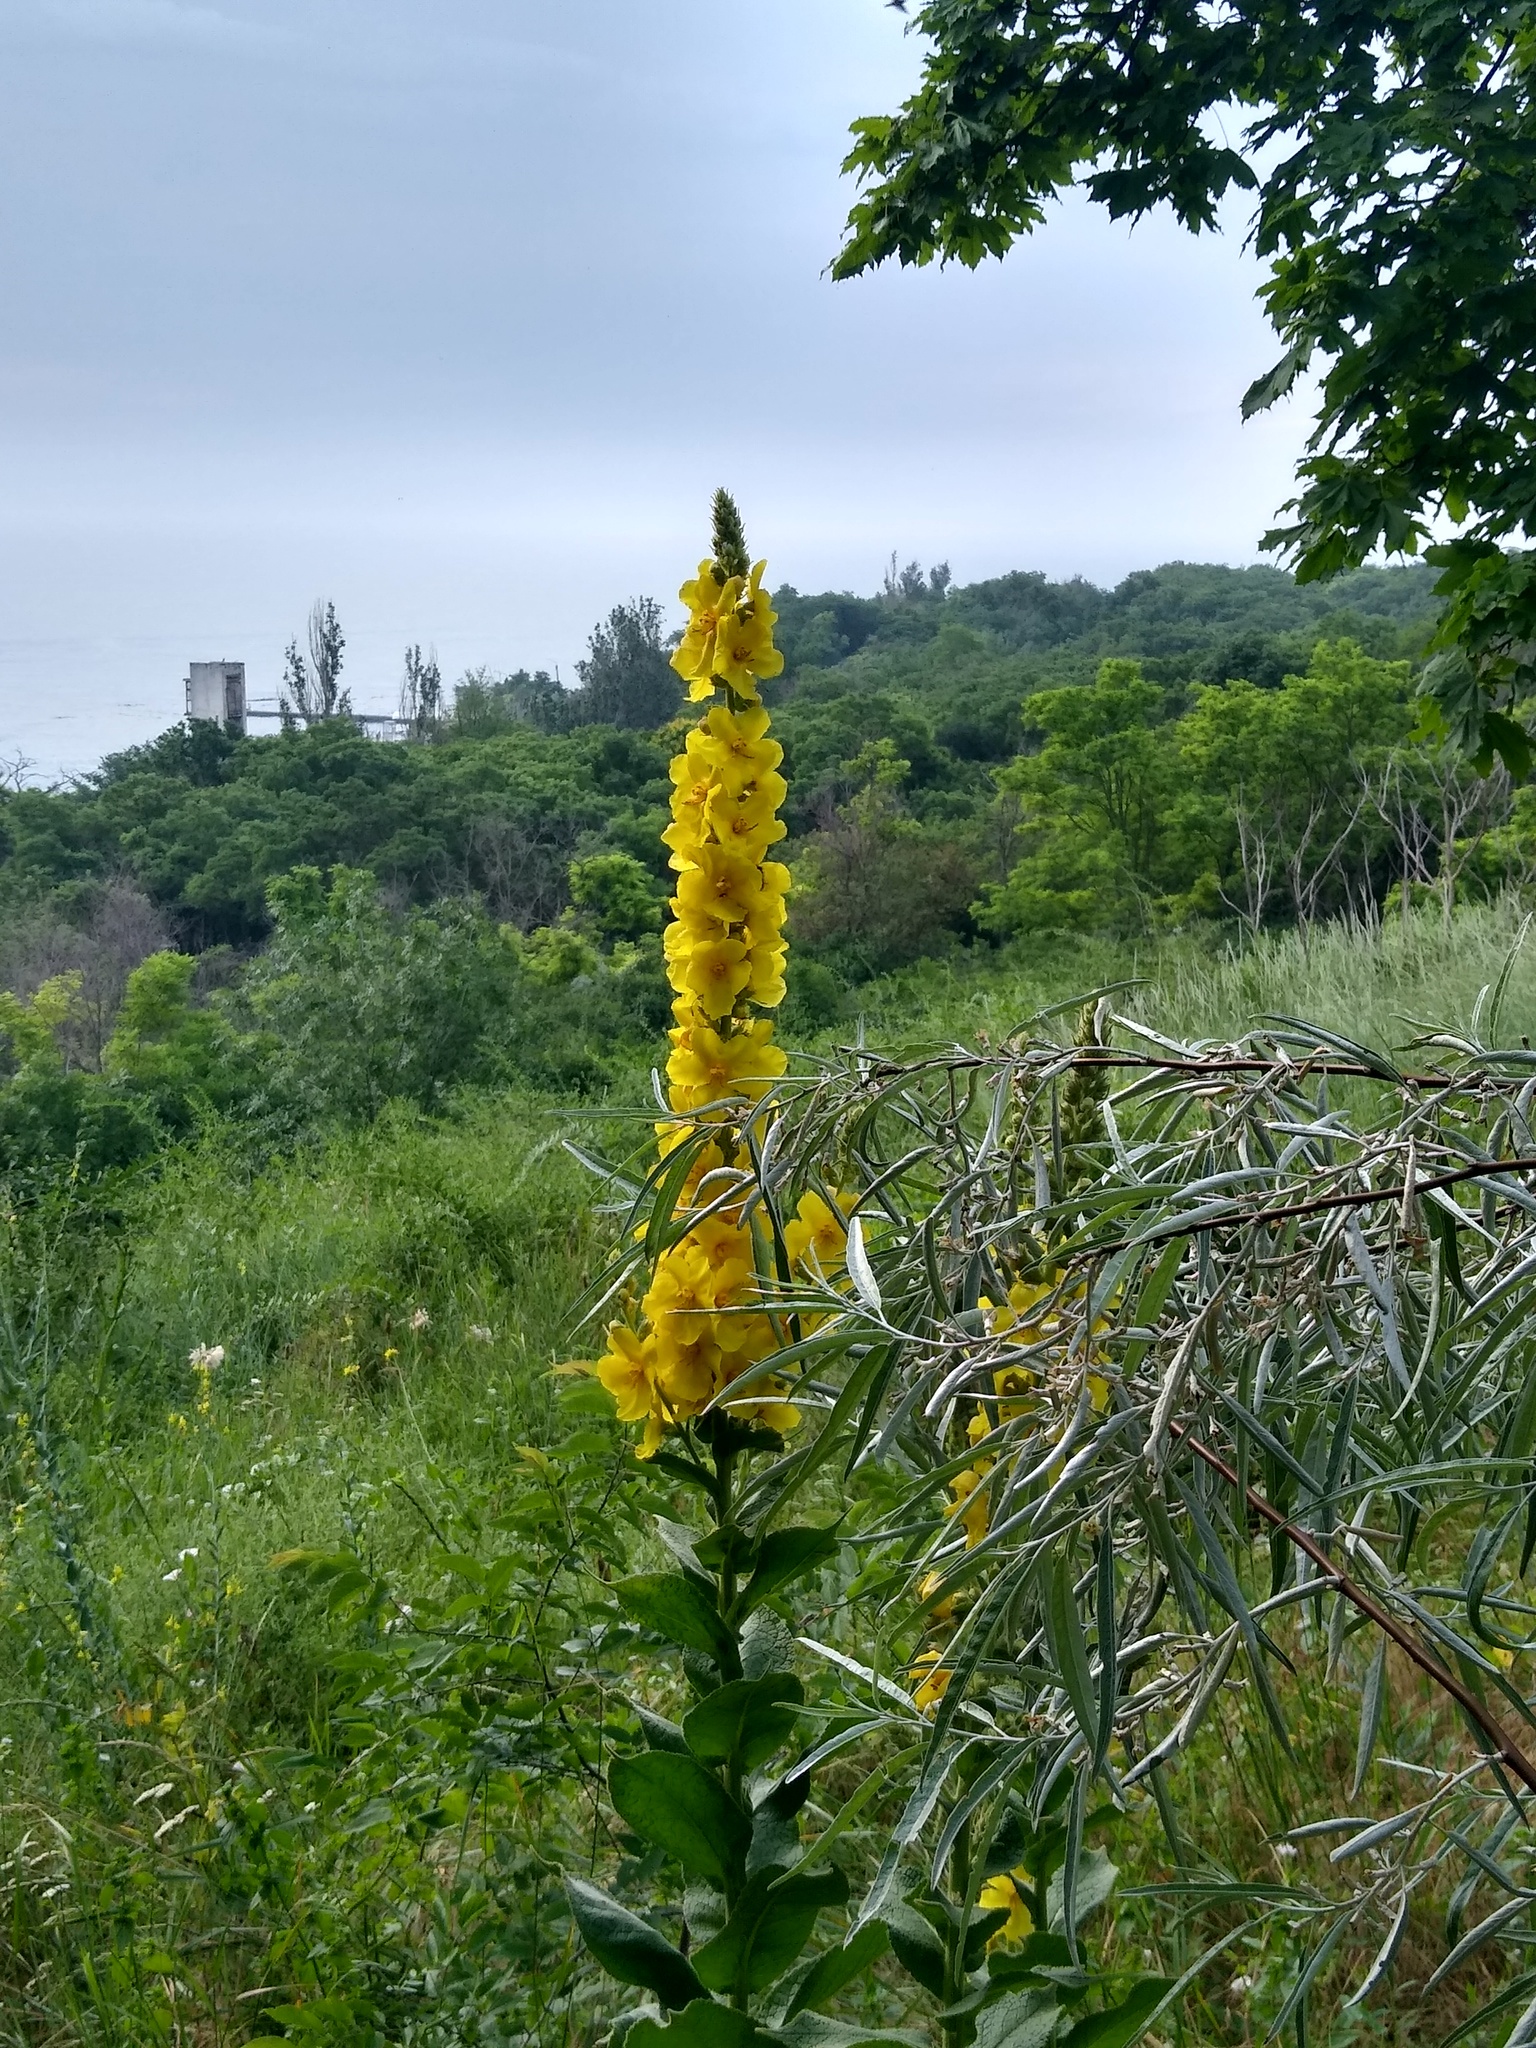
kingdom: Plantae
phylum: Tracheophyta
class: Magnoliopsida
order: Lamiales
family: Scrophulariaceae
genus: Verbascum
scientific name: Verbascum phlomoides
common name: Orange mullein
